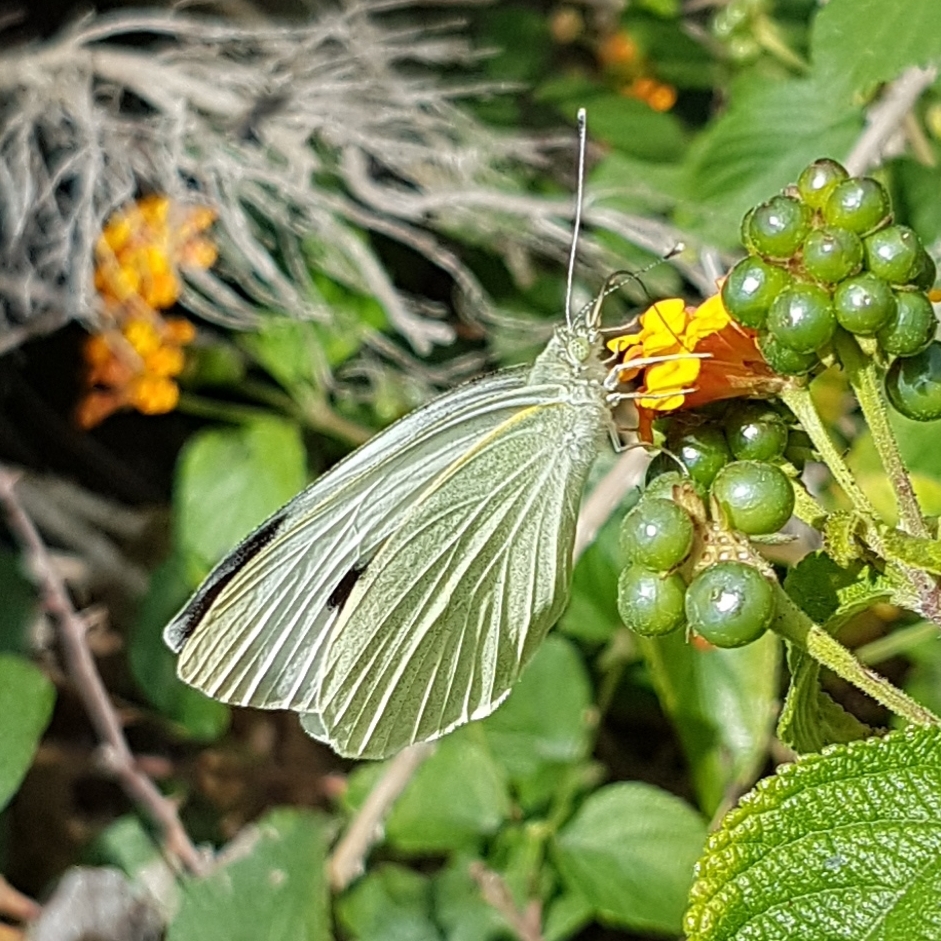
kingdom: Animalia
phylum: Arthropoda
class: Insecta
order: Lepidoptera
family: Pieridae
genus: Pieris
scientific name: Pieris brassicae
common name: Large white
